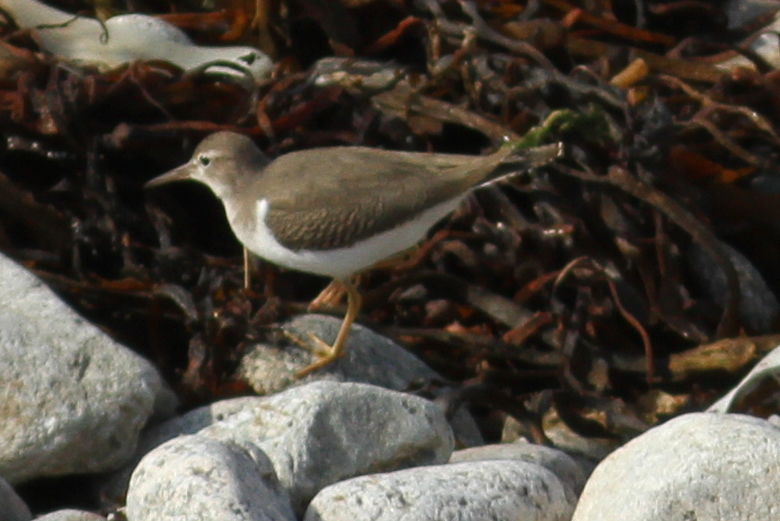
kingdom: Animalia
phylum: Chordata
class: Aves
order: Charadriiformes
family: Scolopacidae
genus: Actitis
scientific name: Actitis macularius
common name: Spotted sandpiper
